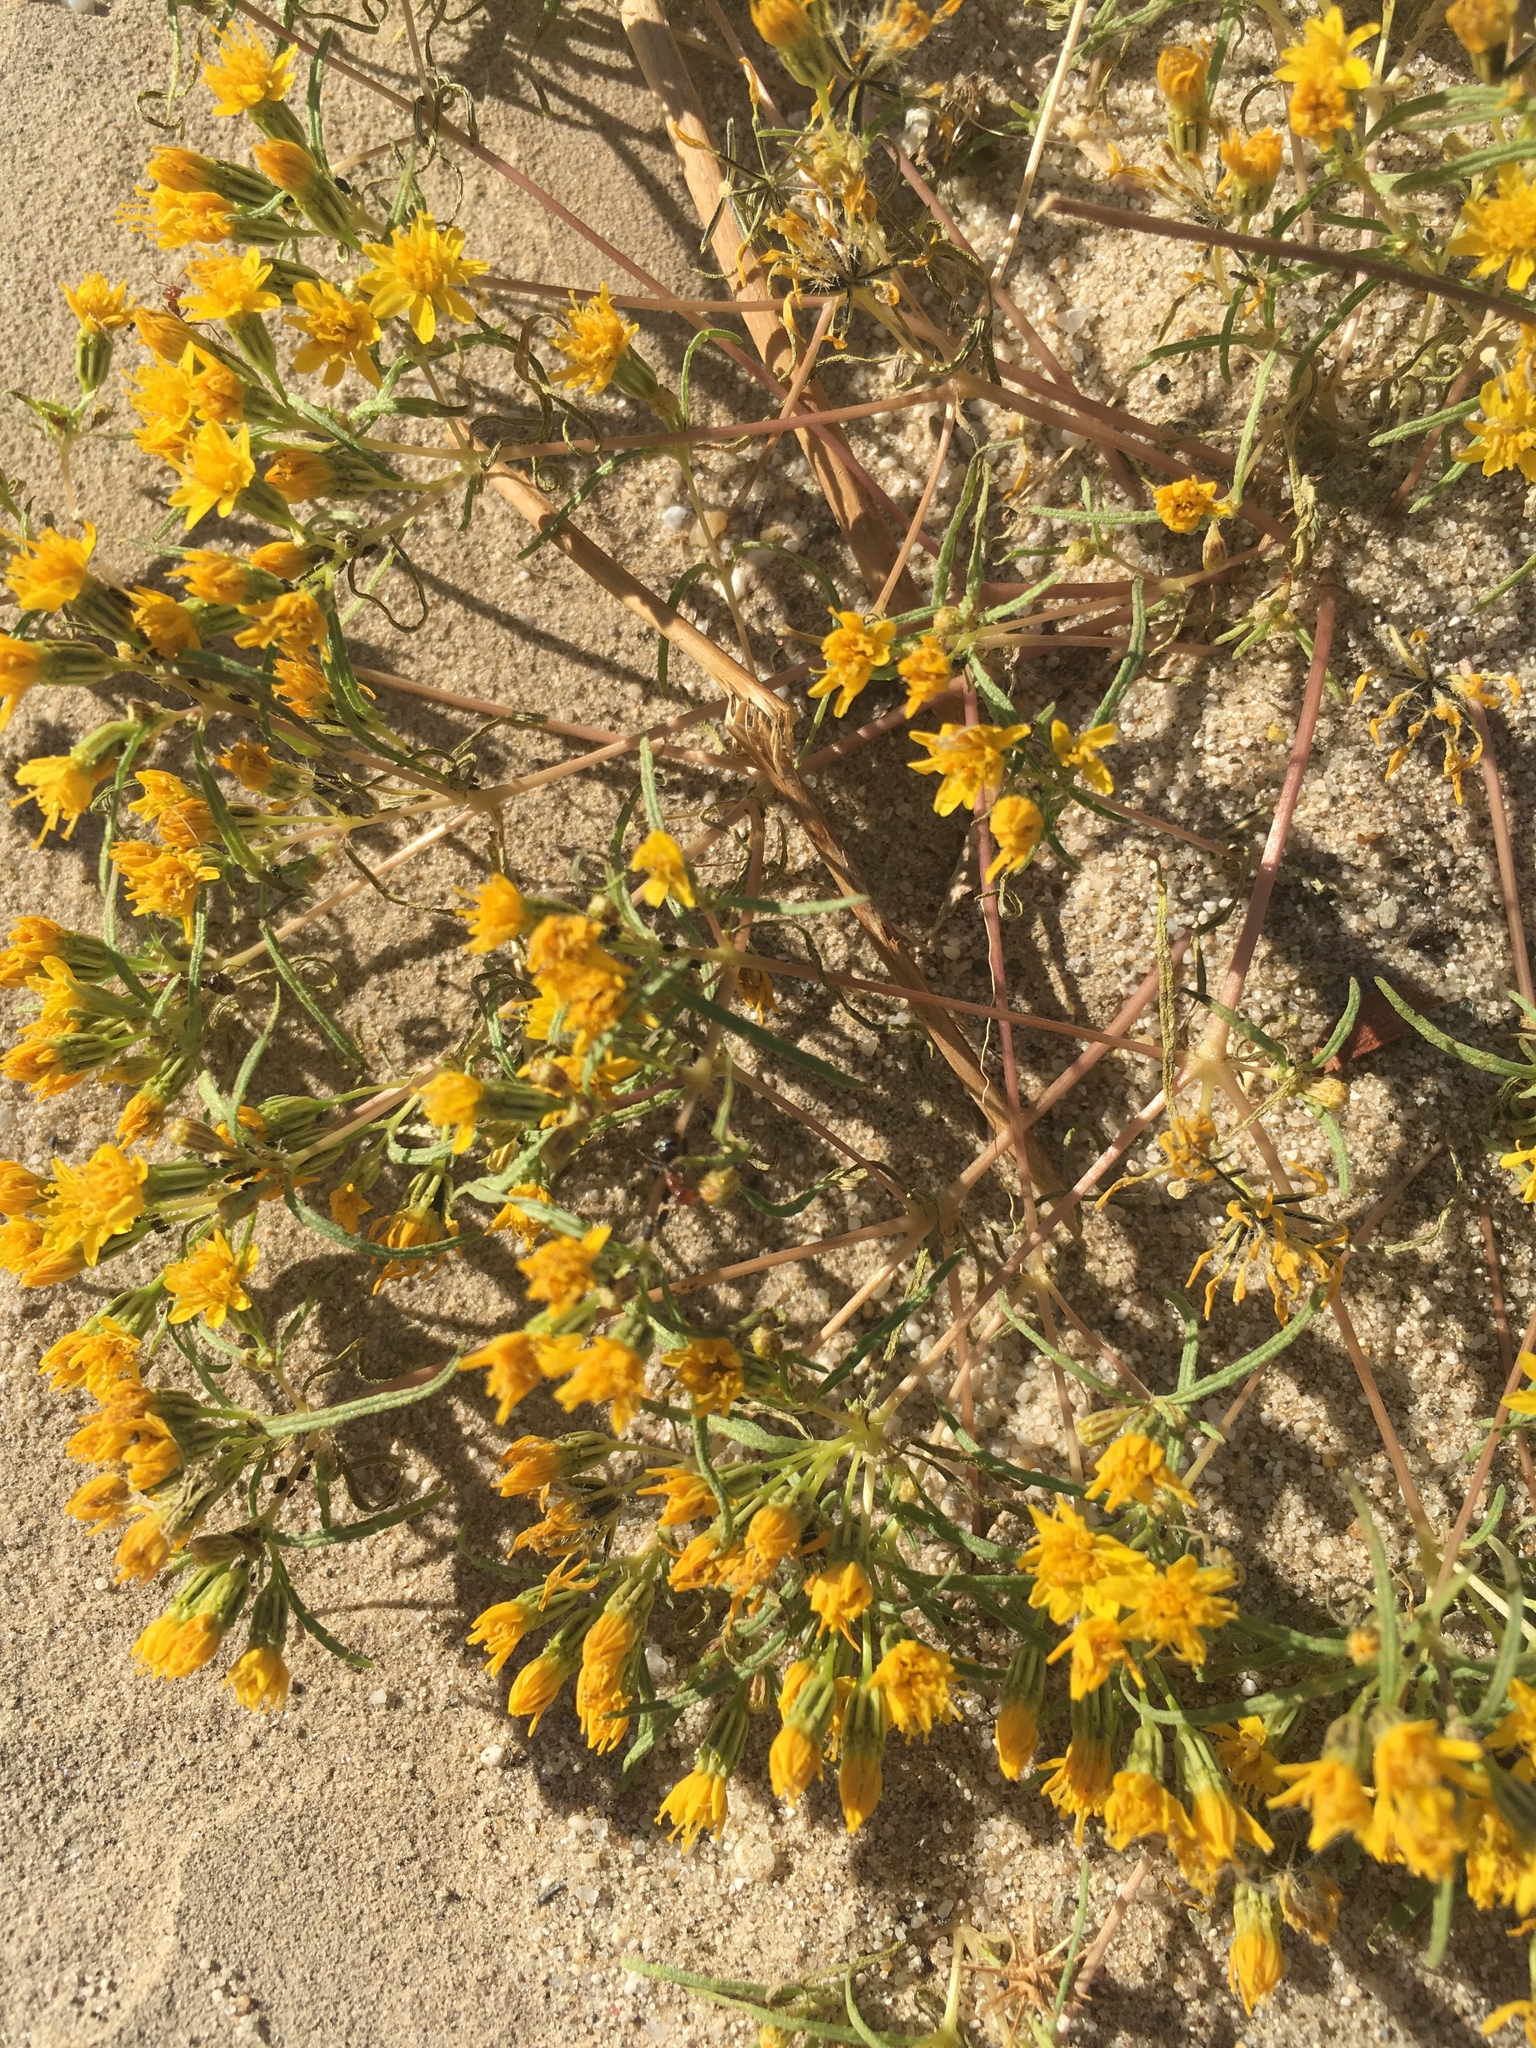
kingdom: Plantae
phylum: Tracheophyta
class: Magnoliopsida
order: Asterales
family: Asteraceae
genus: Pectis
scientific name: Pectis papposa
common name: Many-bristle chinchweed
